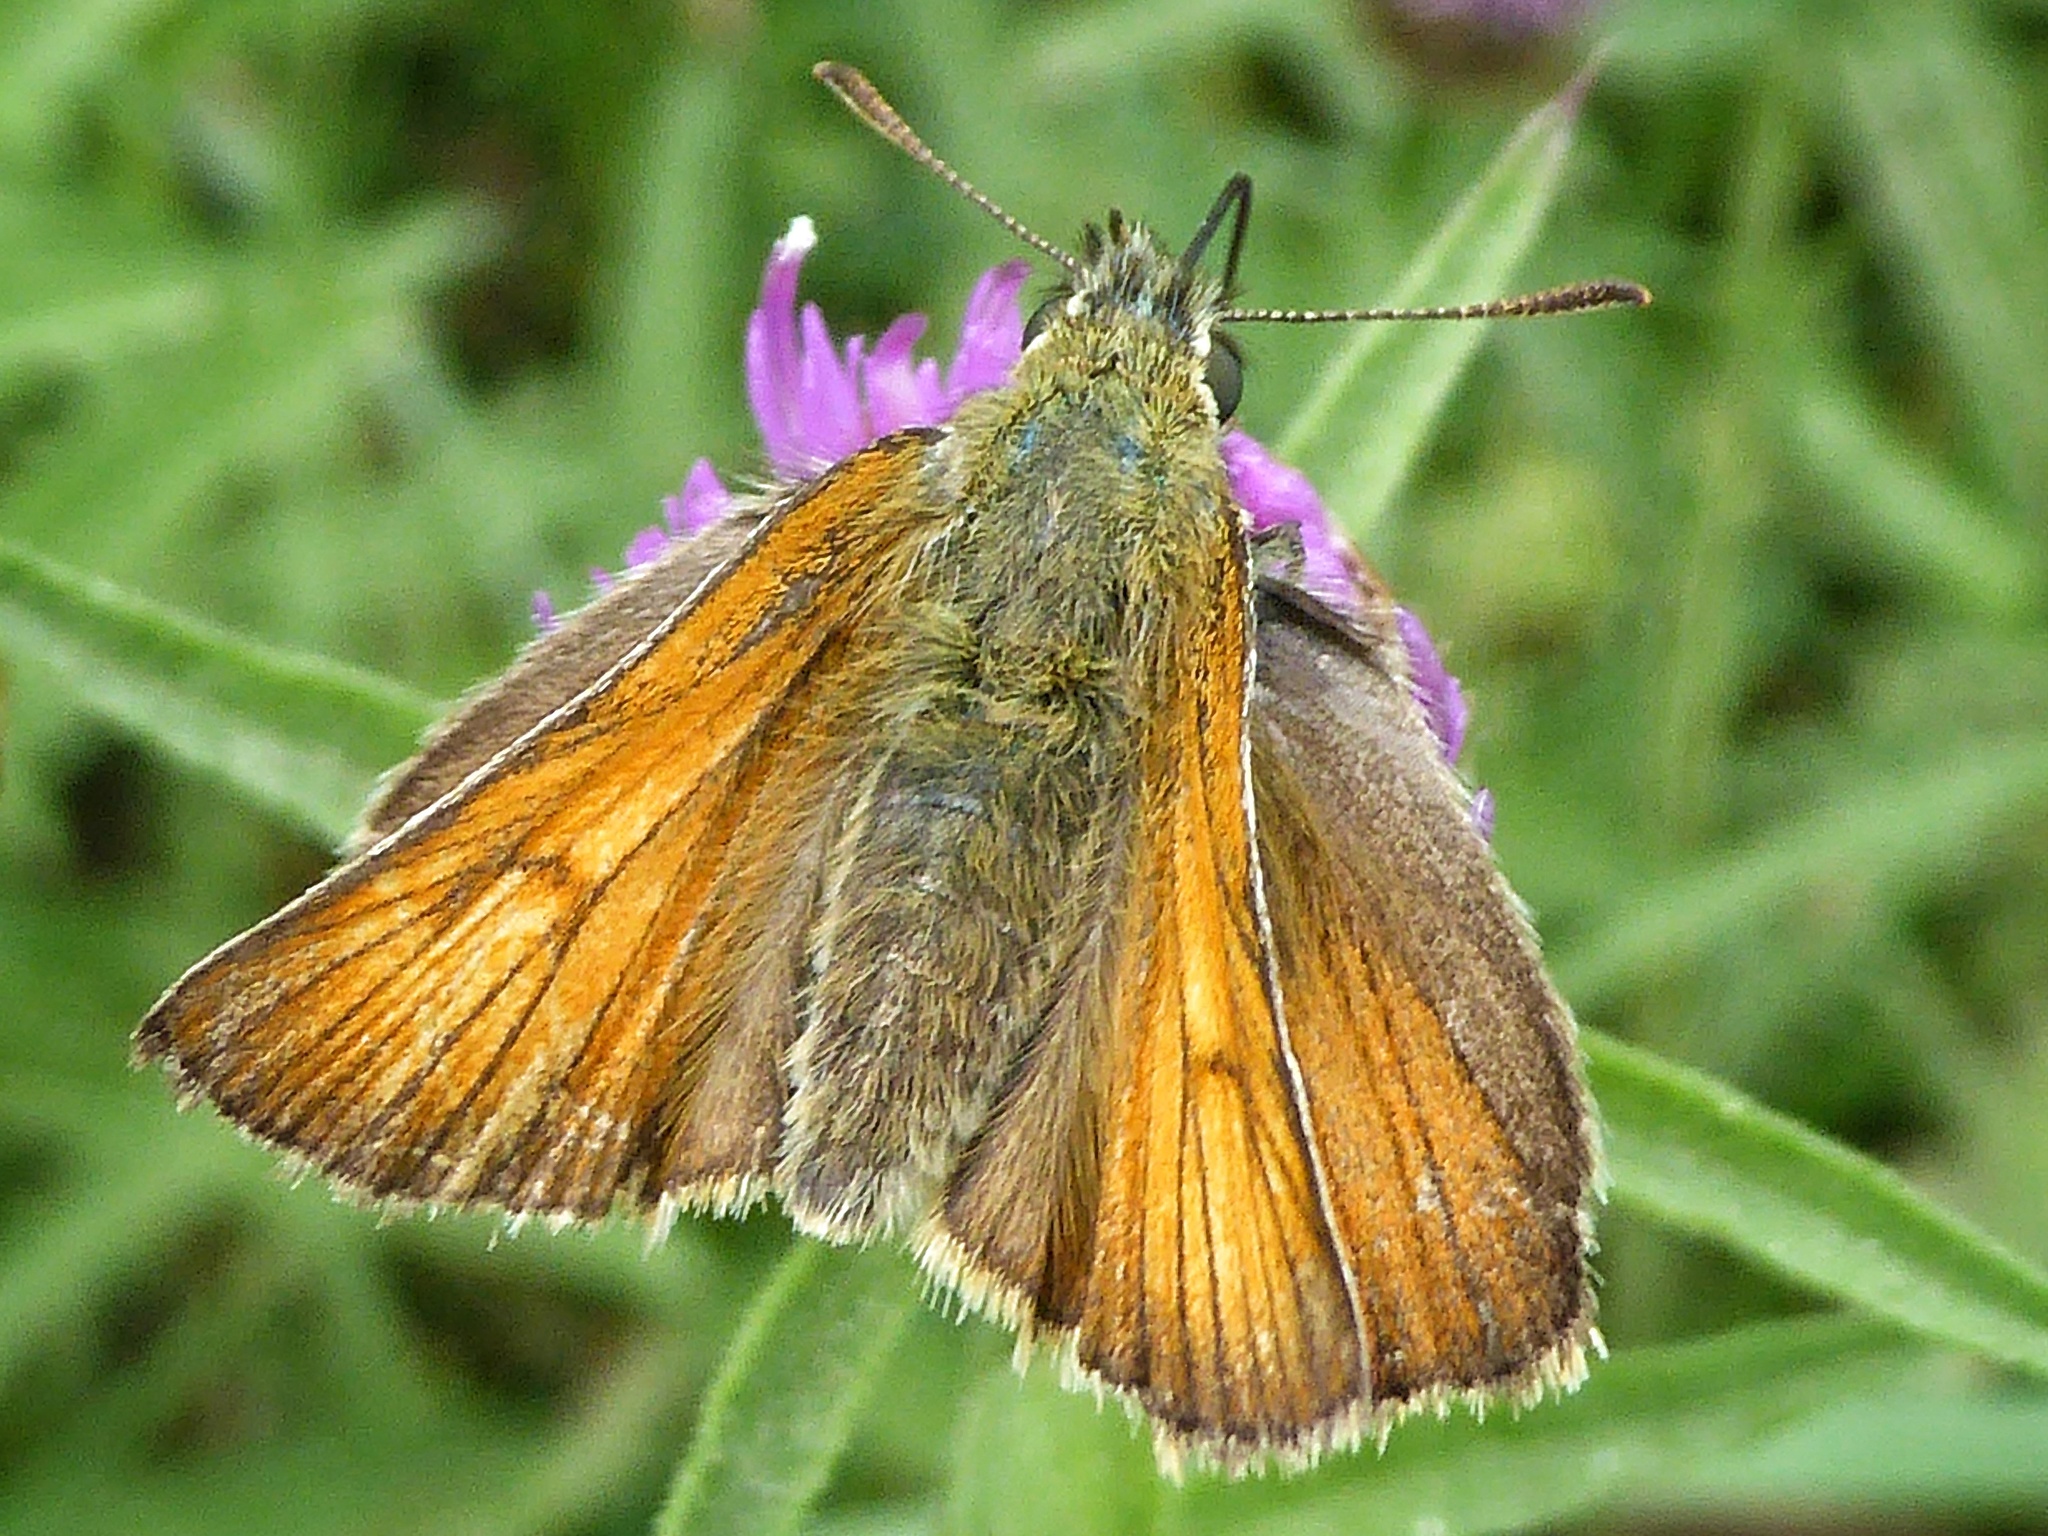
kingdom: Animalia
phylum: Arthropoda
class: Insecta
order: Lepidoptera
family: Hesperiidae
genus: Thymelicus
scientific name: Thymelicus sylvestris
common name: Small skipper
